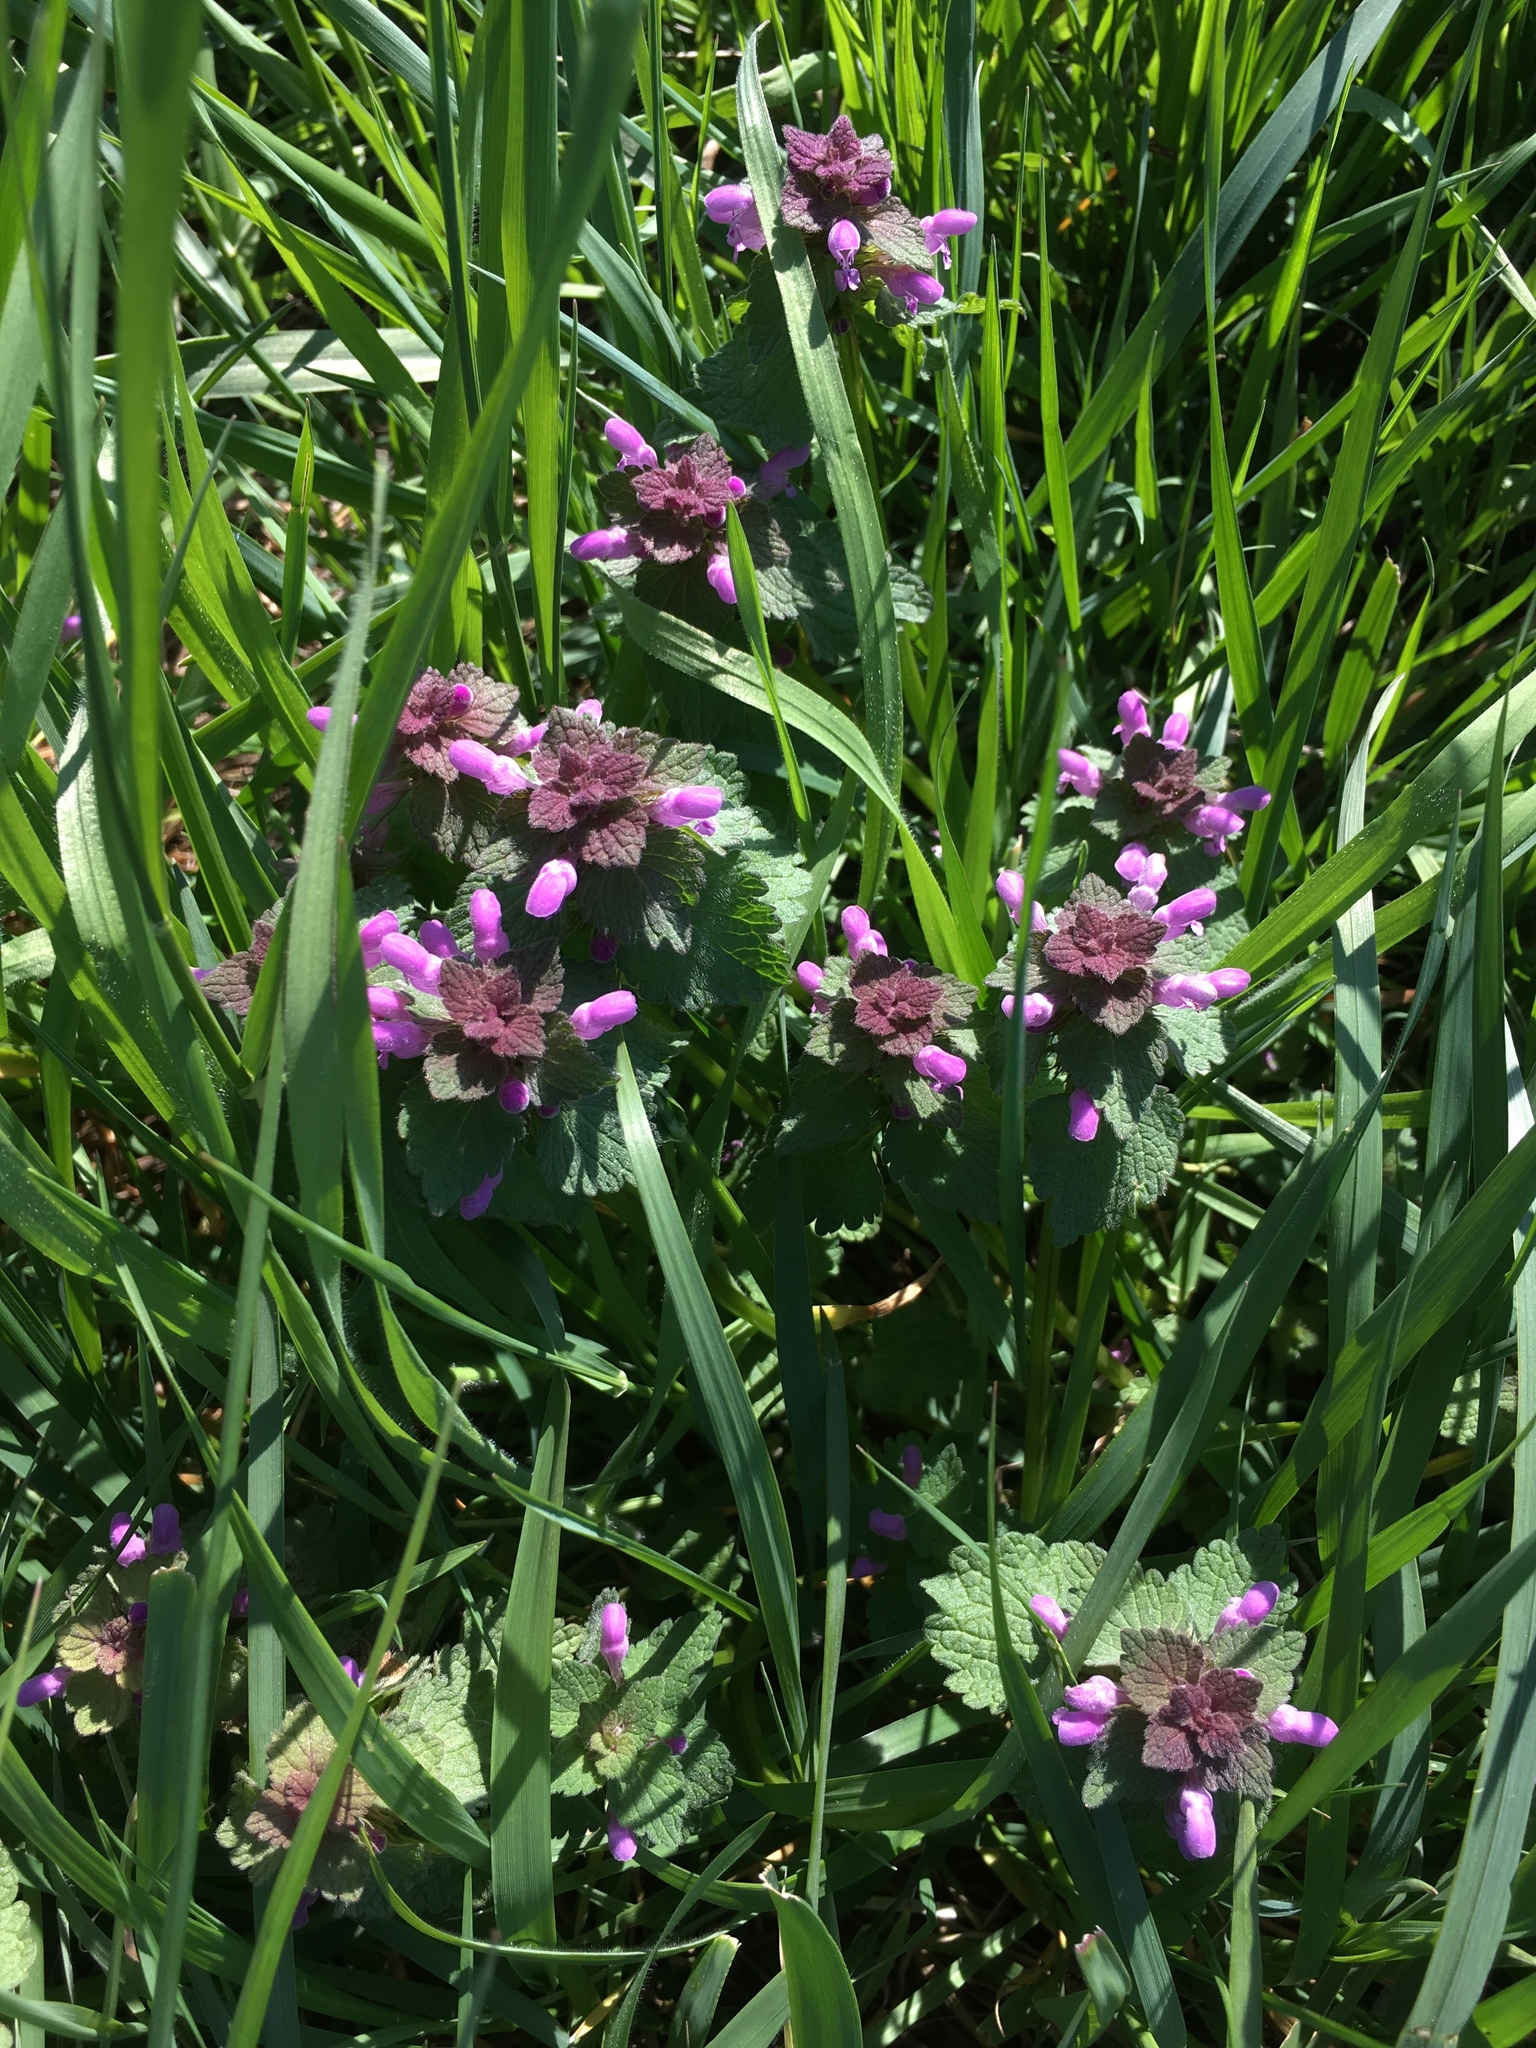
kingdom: Plantae
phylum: Tracheophyta
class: Magnoliopsida
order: Lamiales
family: Lamiaceae
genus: Lamium
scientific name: Lamium purpureum
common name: Red dead-nettle
